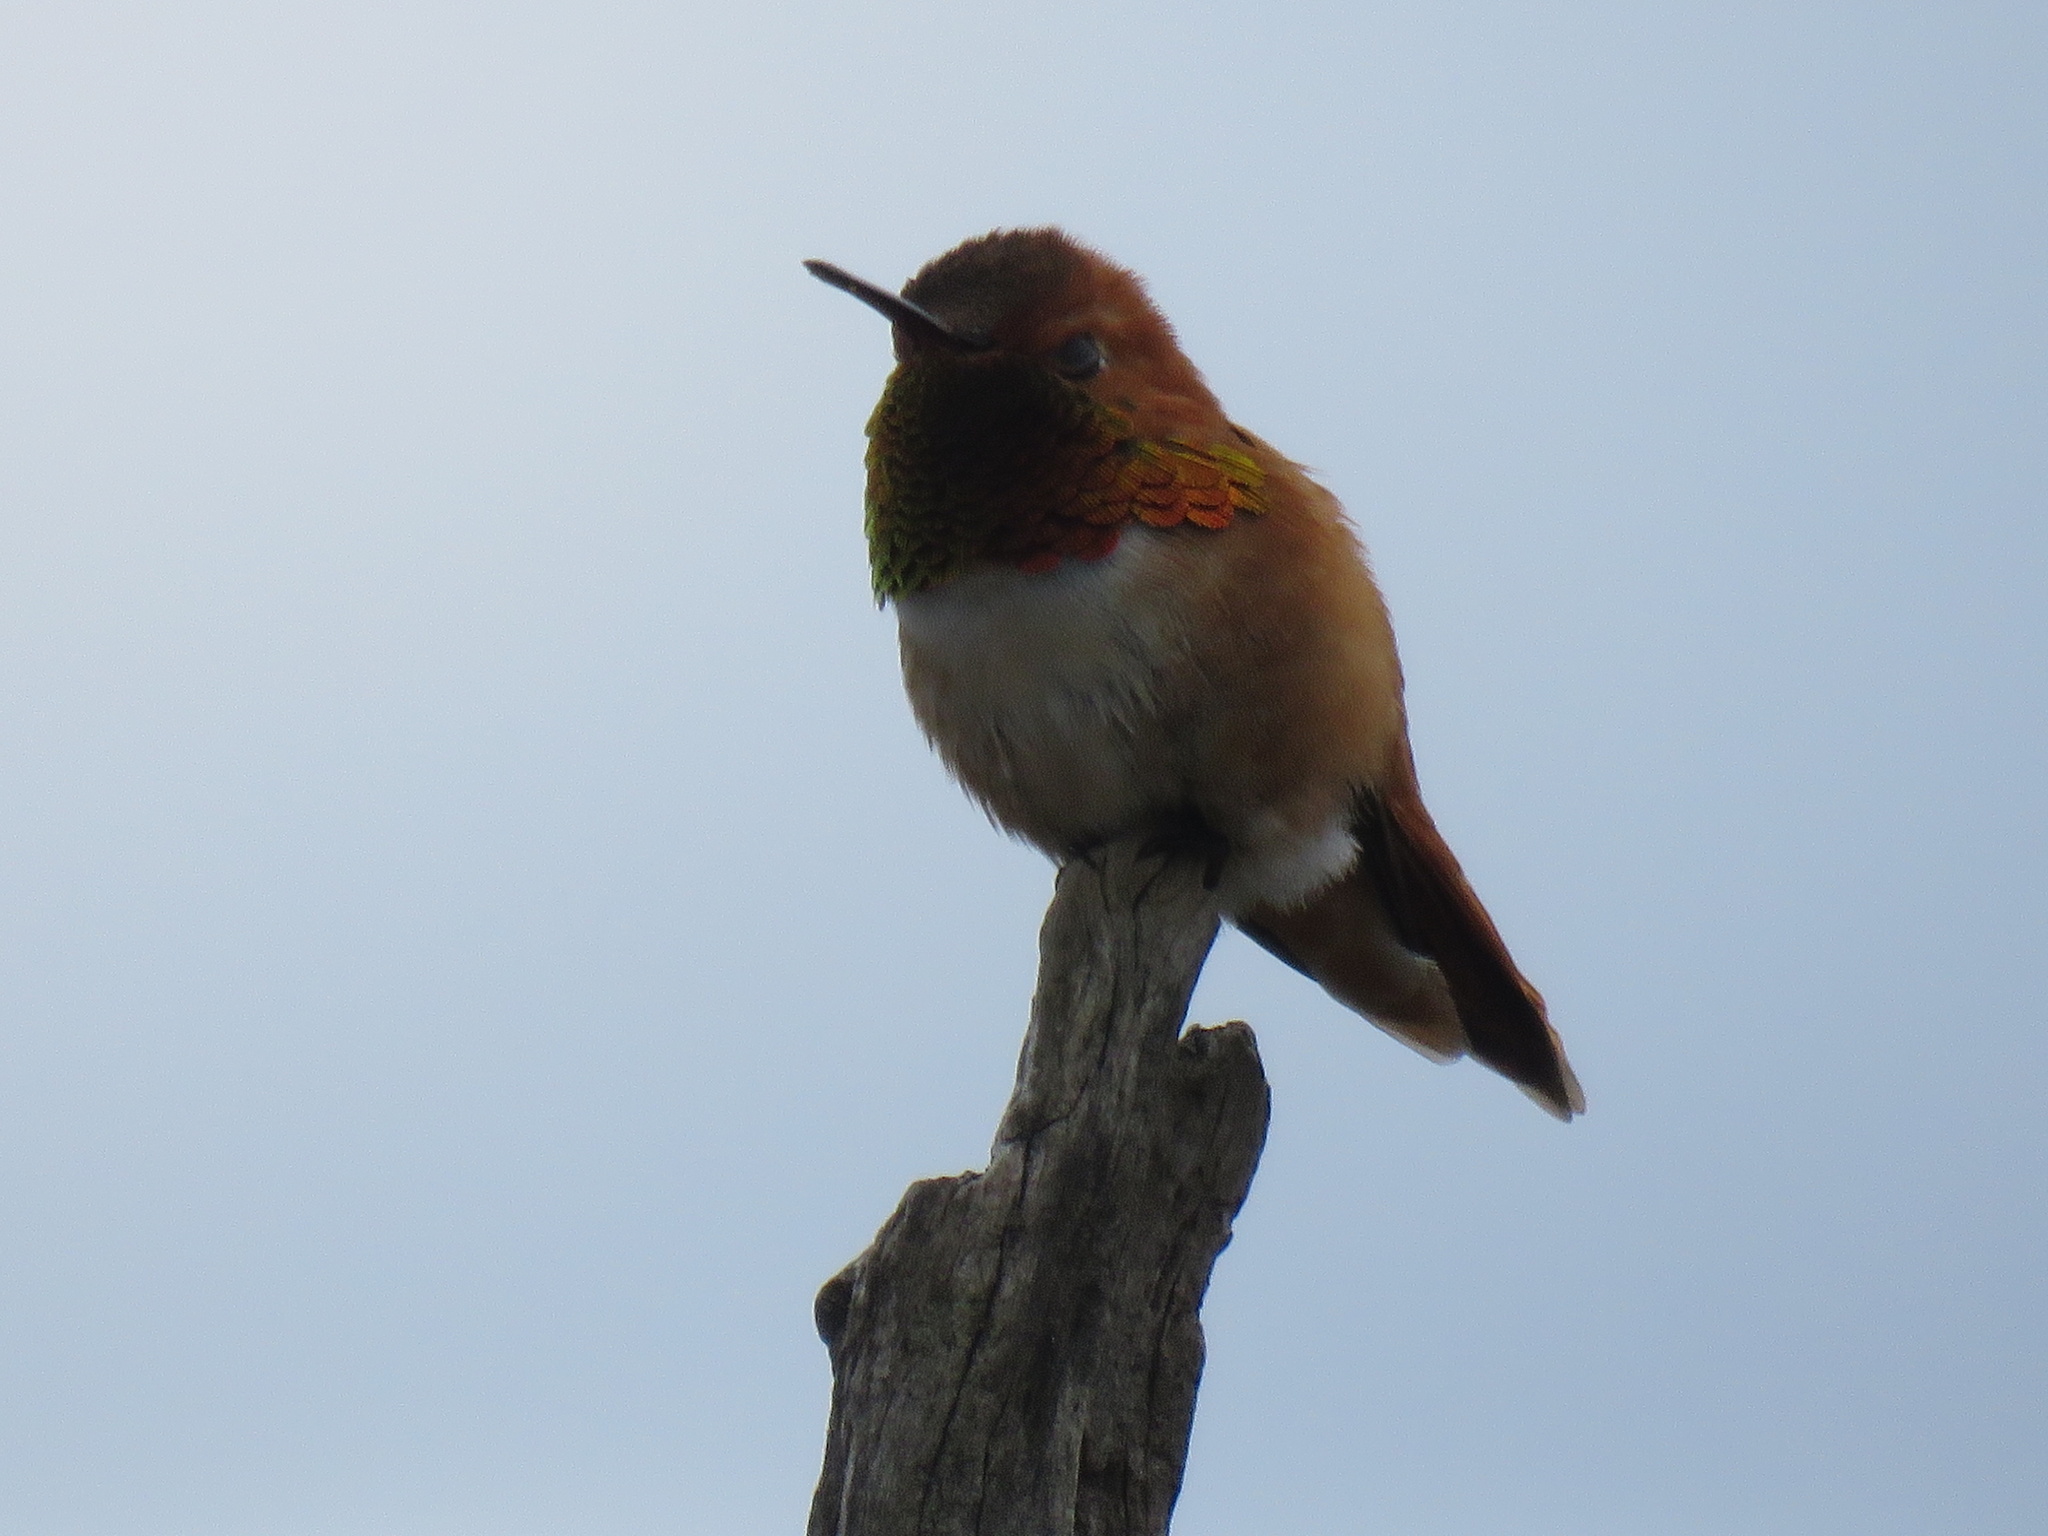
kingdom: Animalia
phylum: Chordata
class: Aves
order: Apodiformes
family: Trochilidae
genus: Selasphorus
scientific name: Selasphorus rufus
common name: Rufous hummingbird
